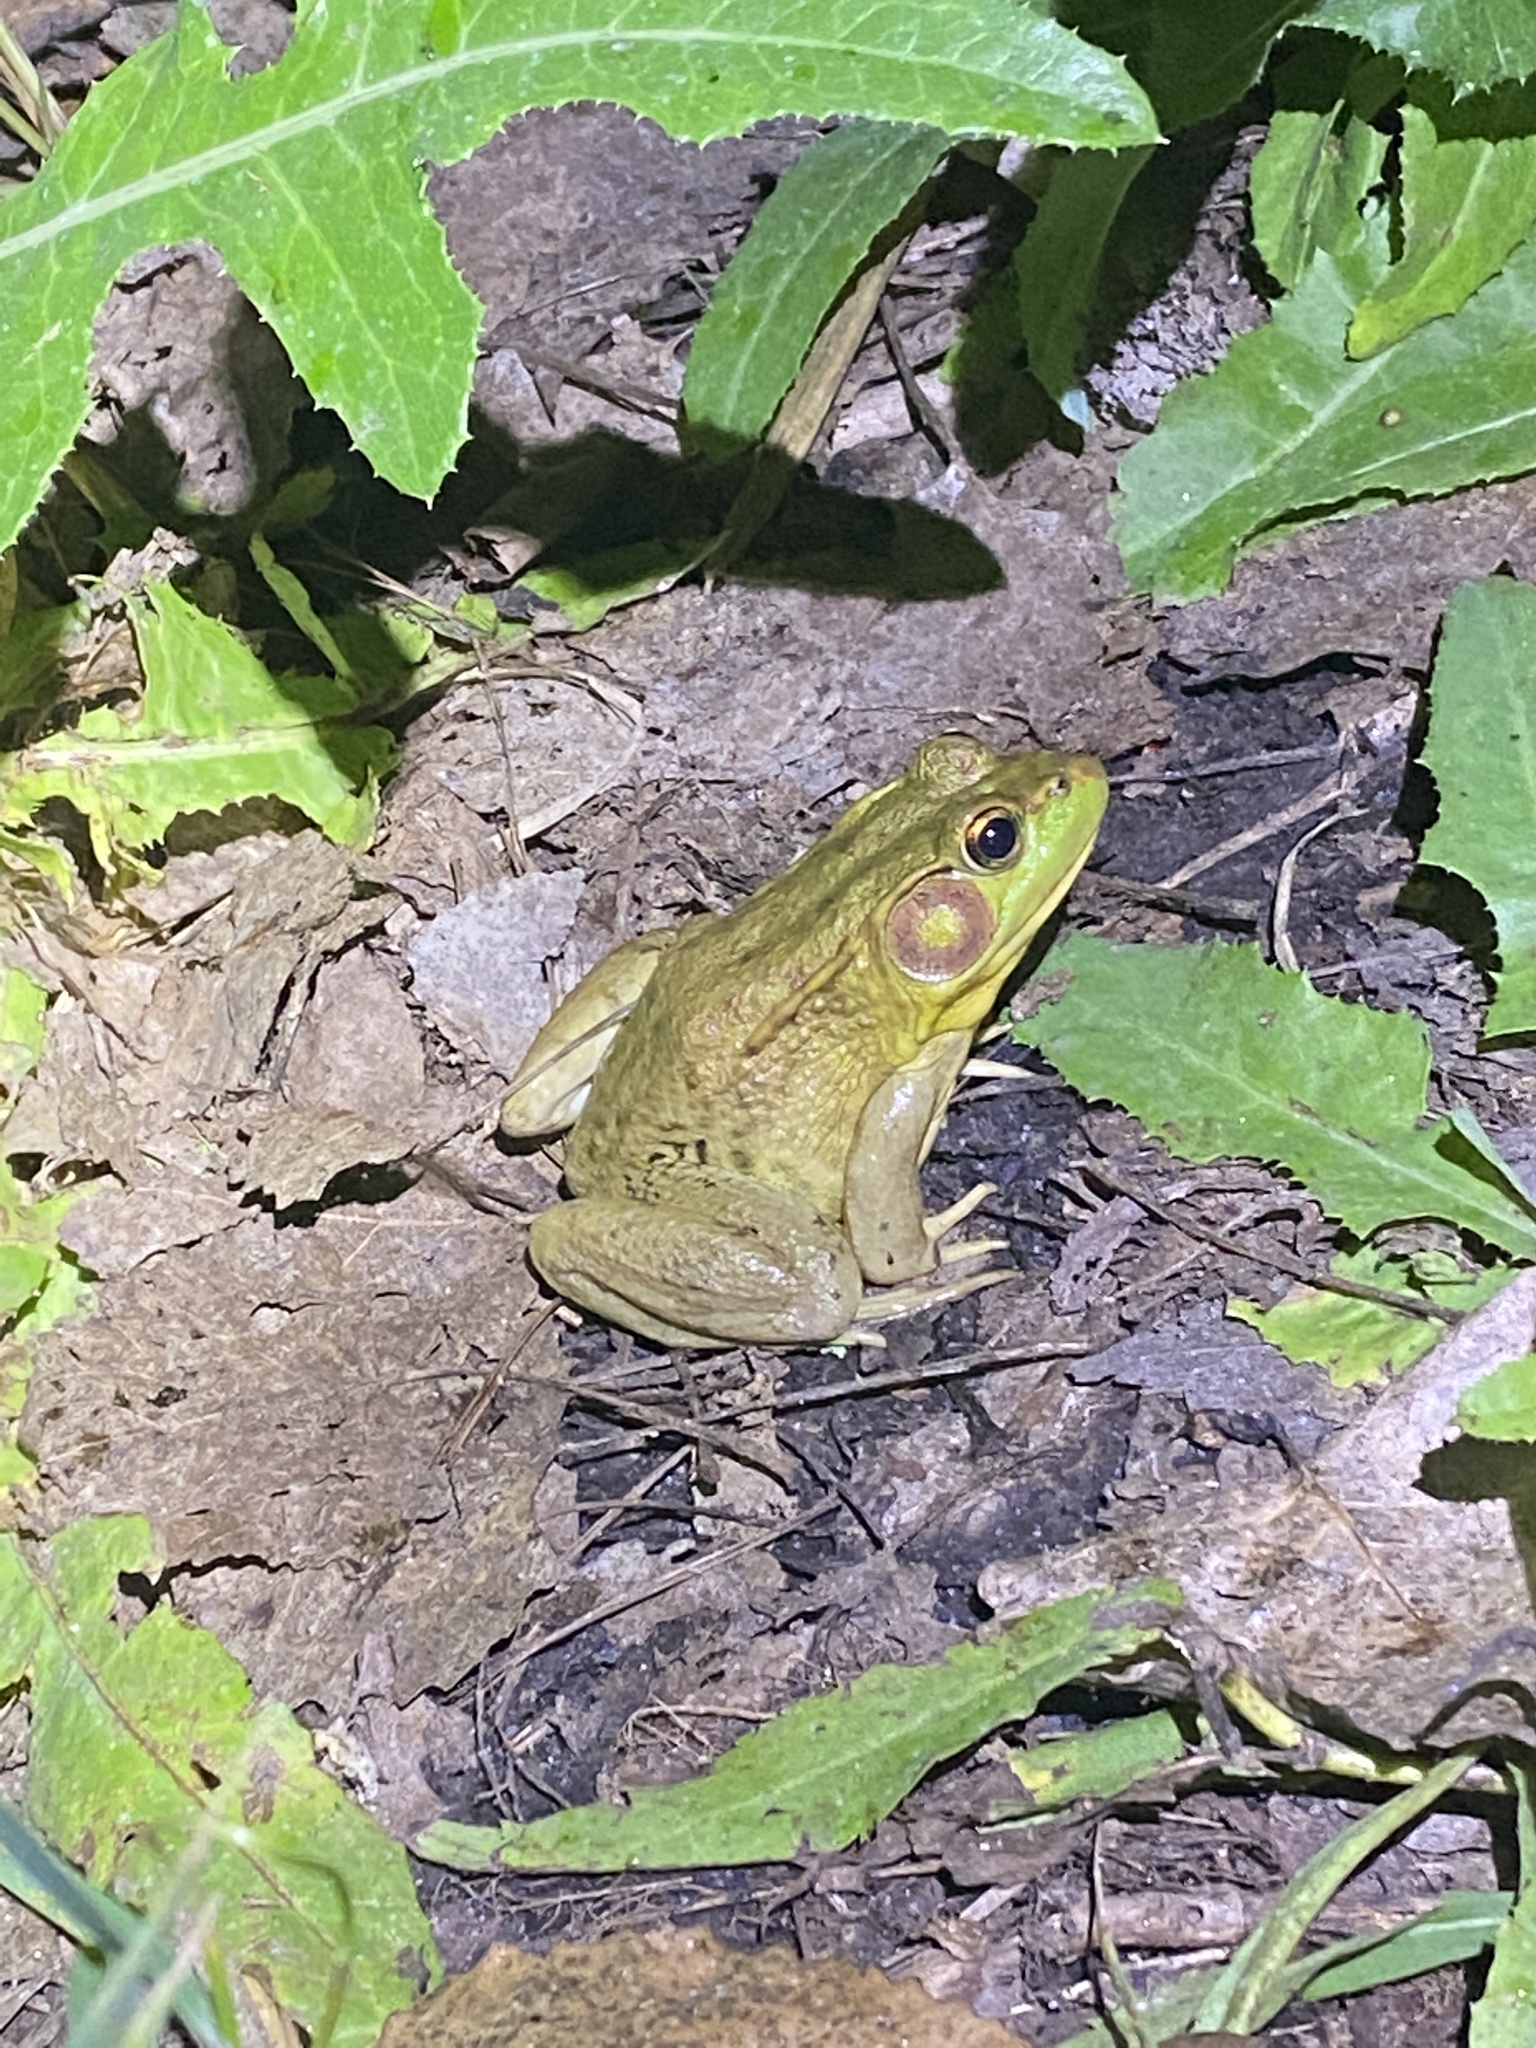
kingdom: Animalia
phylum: Chordata
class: Amphibia
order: Anura
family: Ranidae
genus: Lithobates
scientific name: Lithobates clamitans
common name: Green frog
